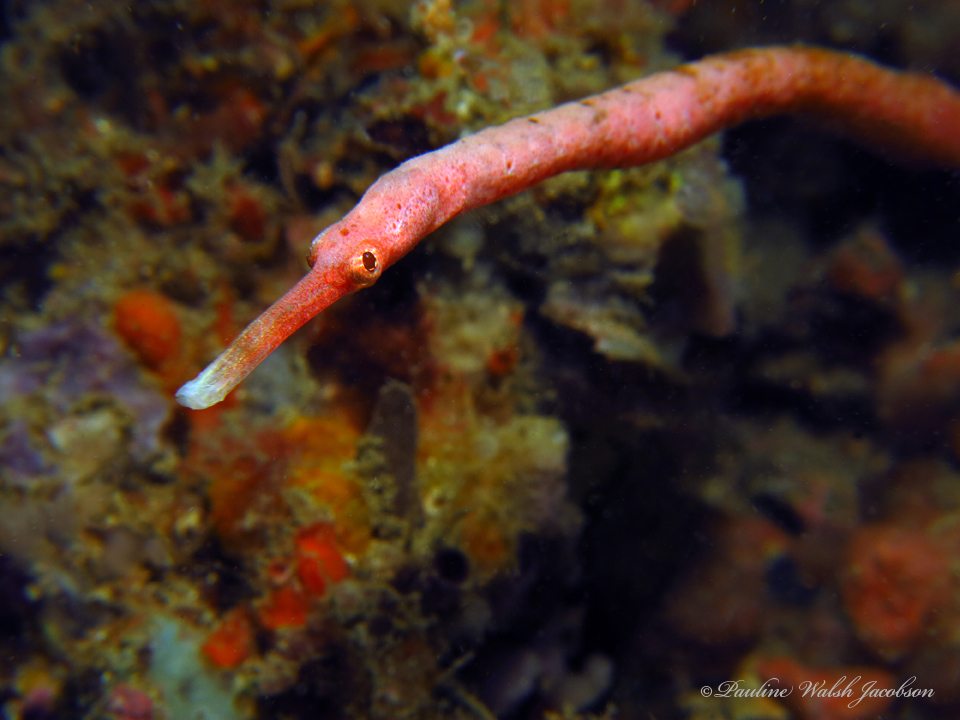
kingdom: Animalia
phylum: Chordata
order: Syngnathiformes
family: Syngnathidae
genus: Trachyrhamphus
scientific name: Trachyrhamphus bicoarctatus
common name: Double-ended pipefish
